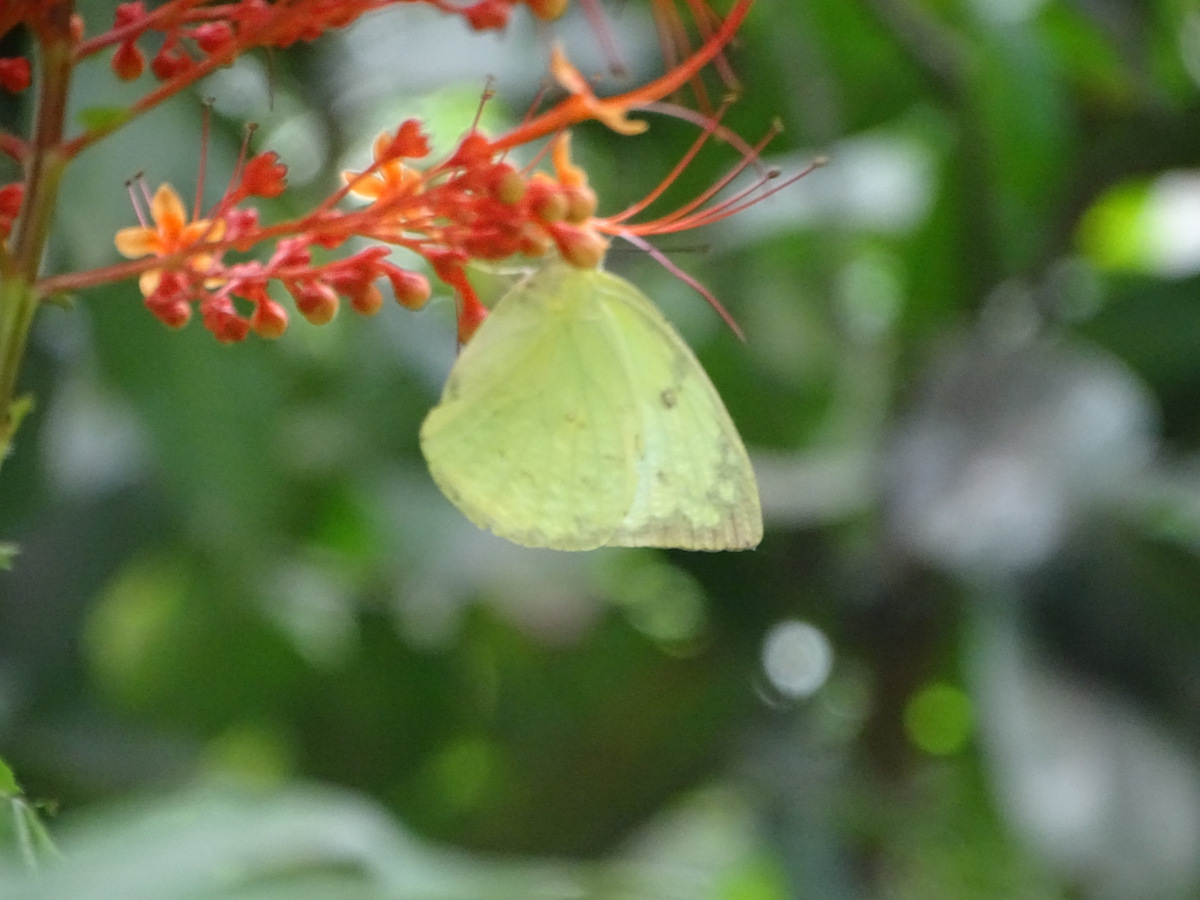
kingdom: Animalia
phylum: Arthropoda
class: Insecta
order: Lepidoptera
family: Pieridae
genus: Catopsilia
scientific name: Catopsilia pomona
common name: Common emigrant
